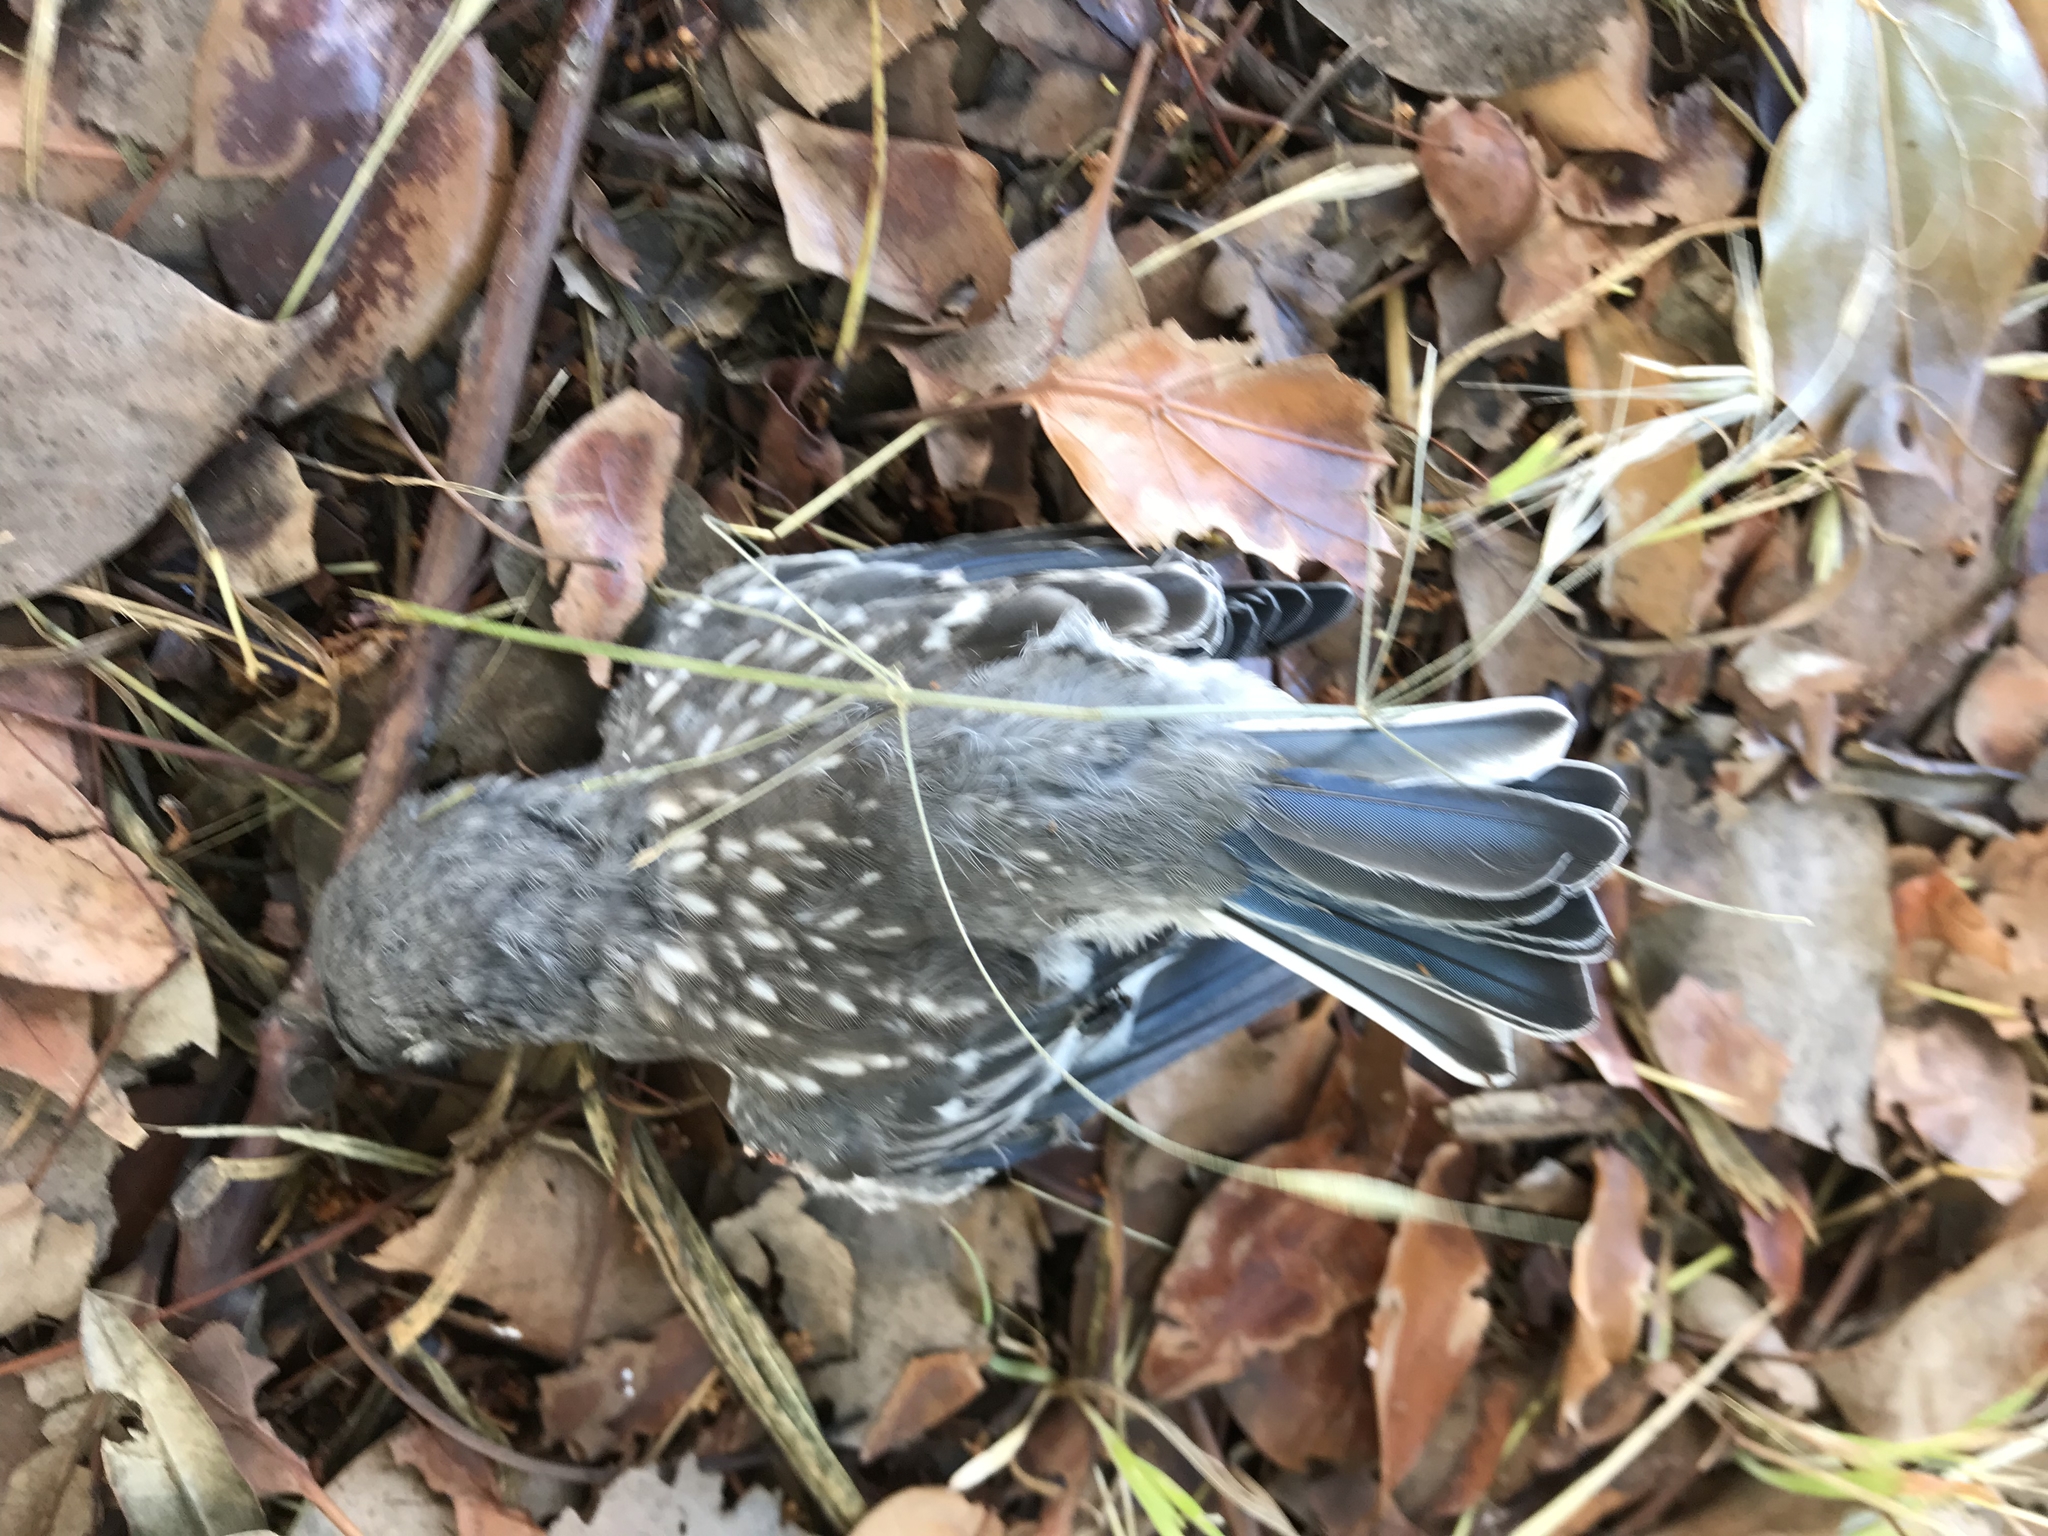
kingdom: Animalia
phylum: Chordata
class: Aves
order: Passeriformes
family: Turdidae
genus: Sialia
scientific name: Sialia mexicana
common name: Western bluebird
